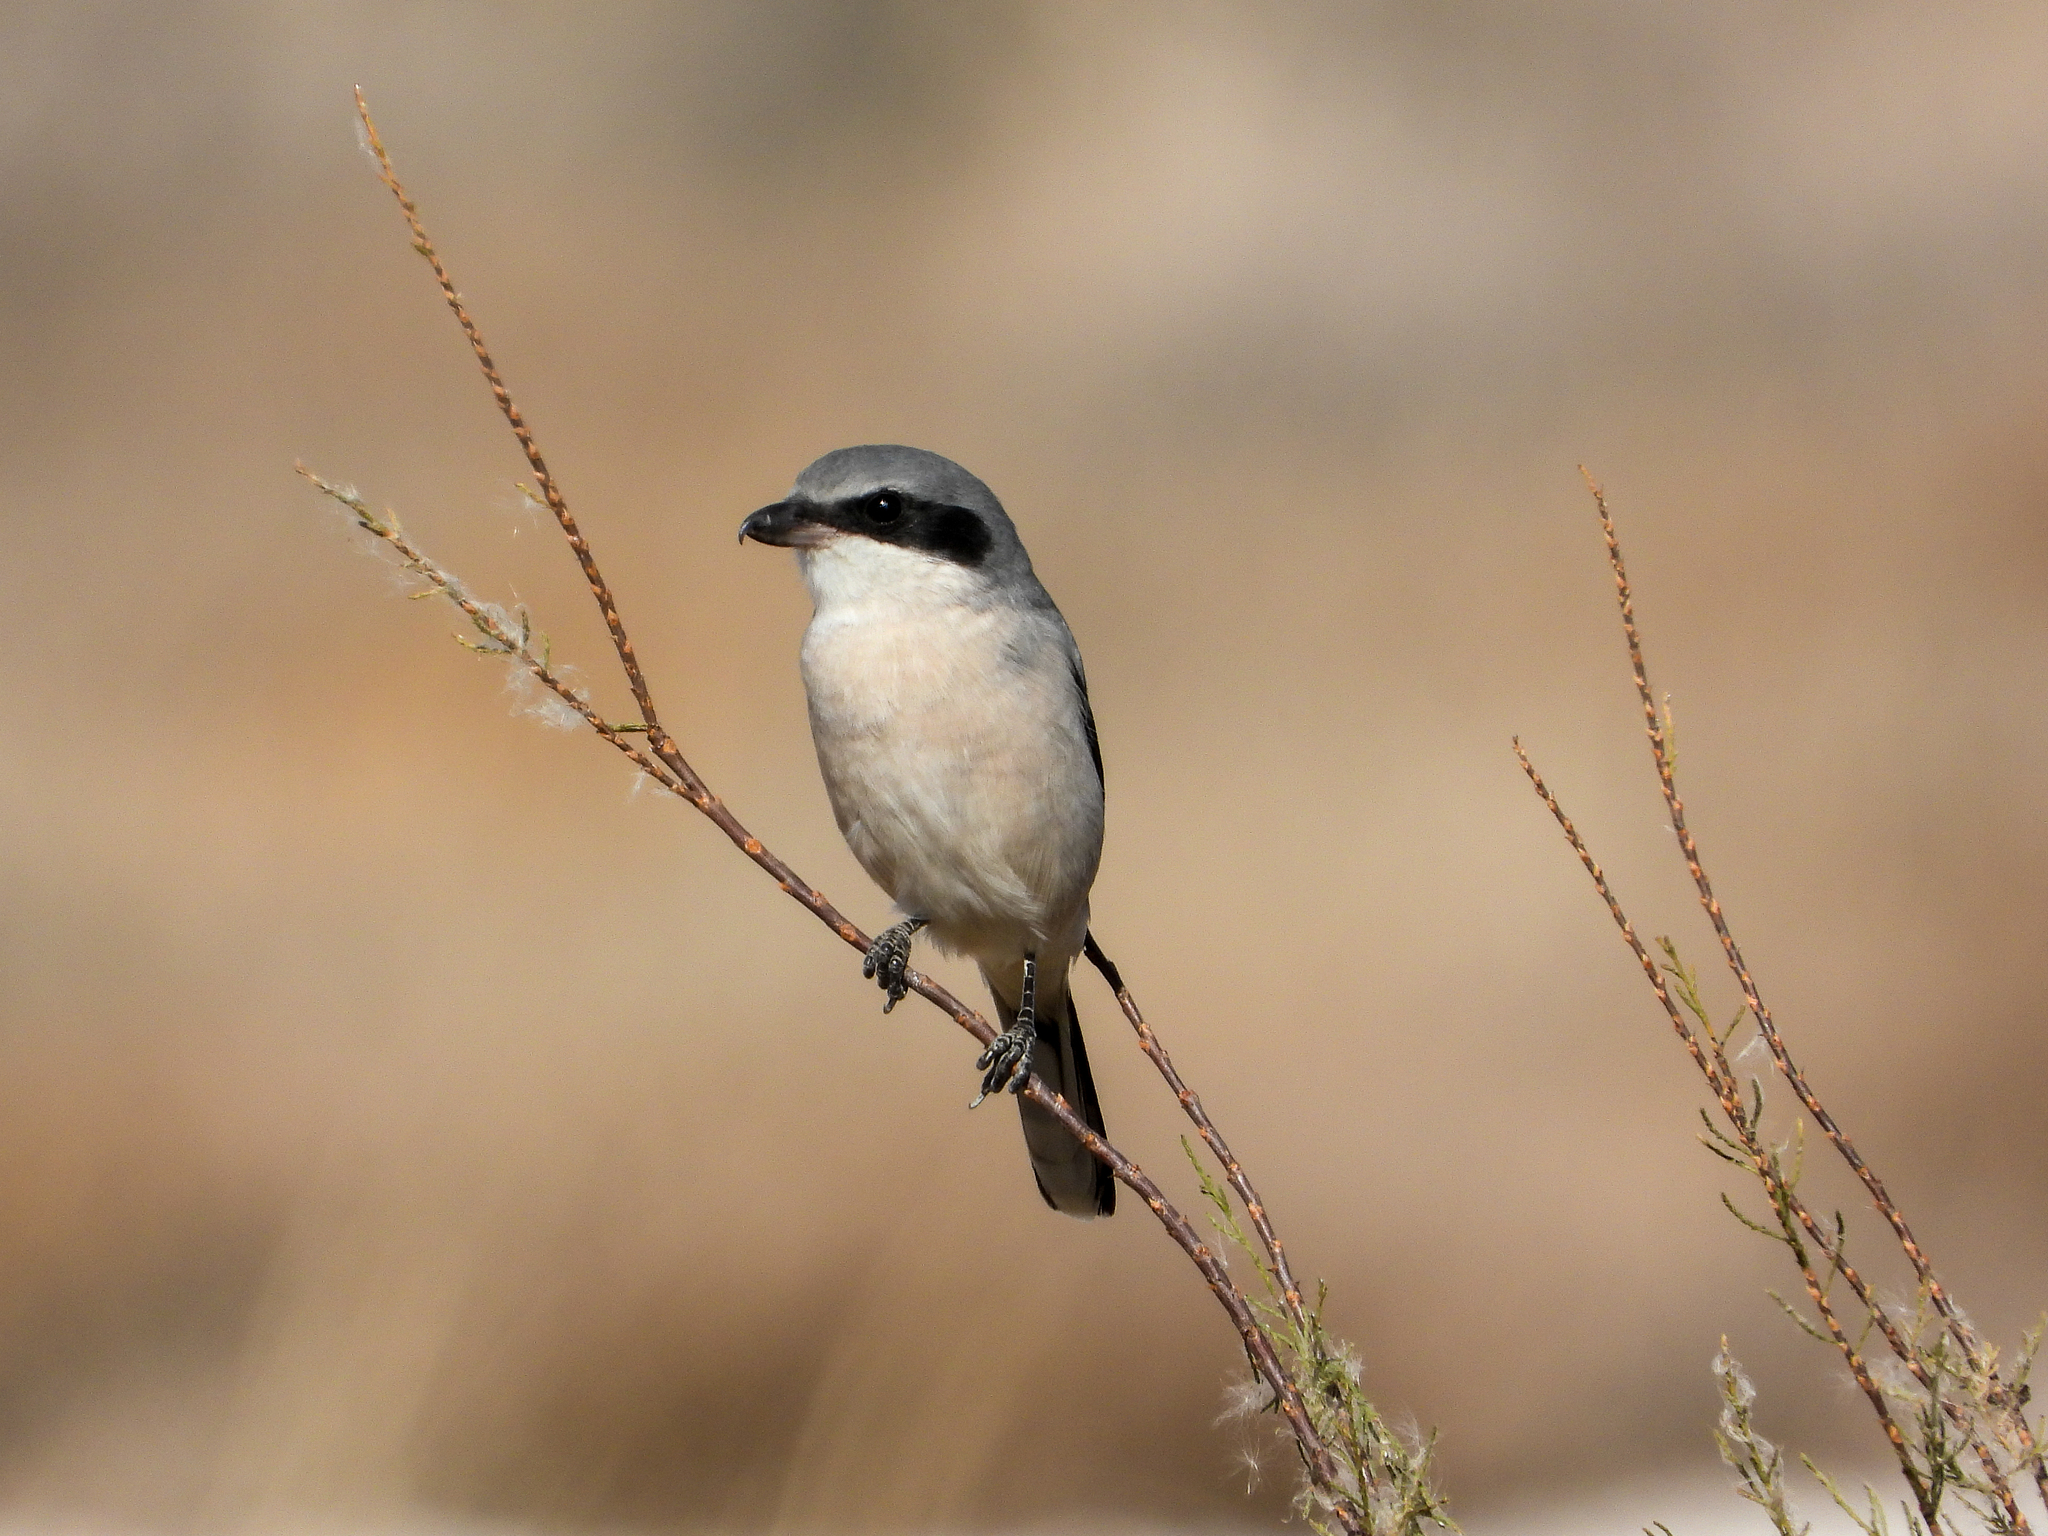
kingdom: Animalia
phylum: Chordata
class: Aves
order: Passeriformes
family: Laniidae
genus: Lanius
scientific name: Lanius ludovicianus
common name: Loggerhead shrike
